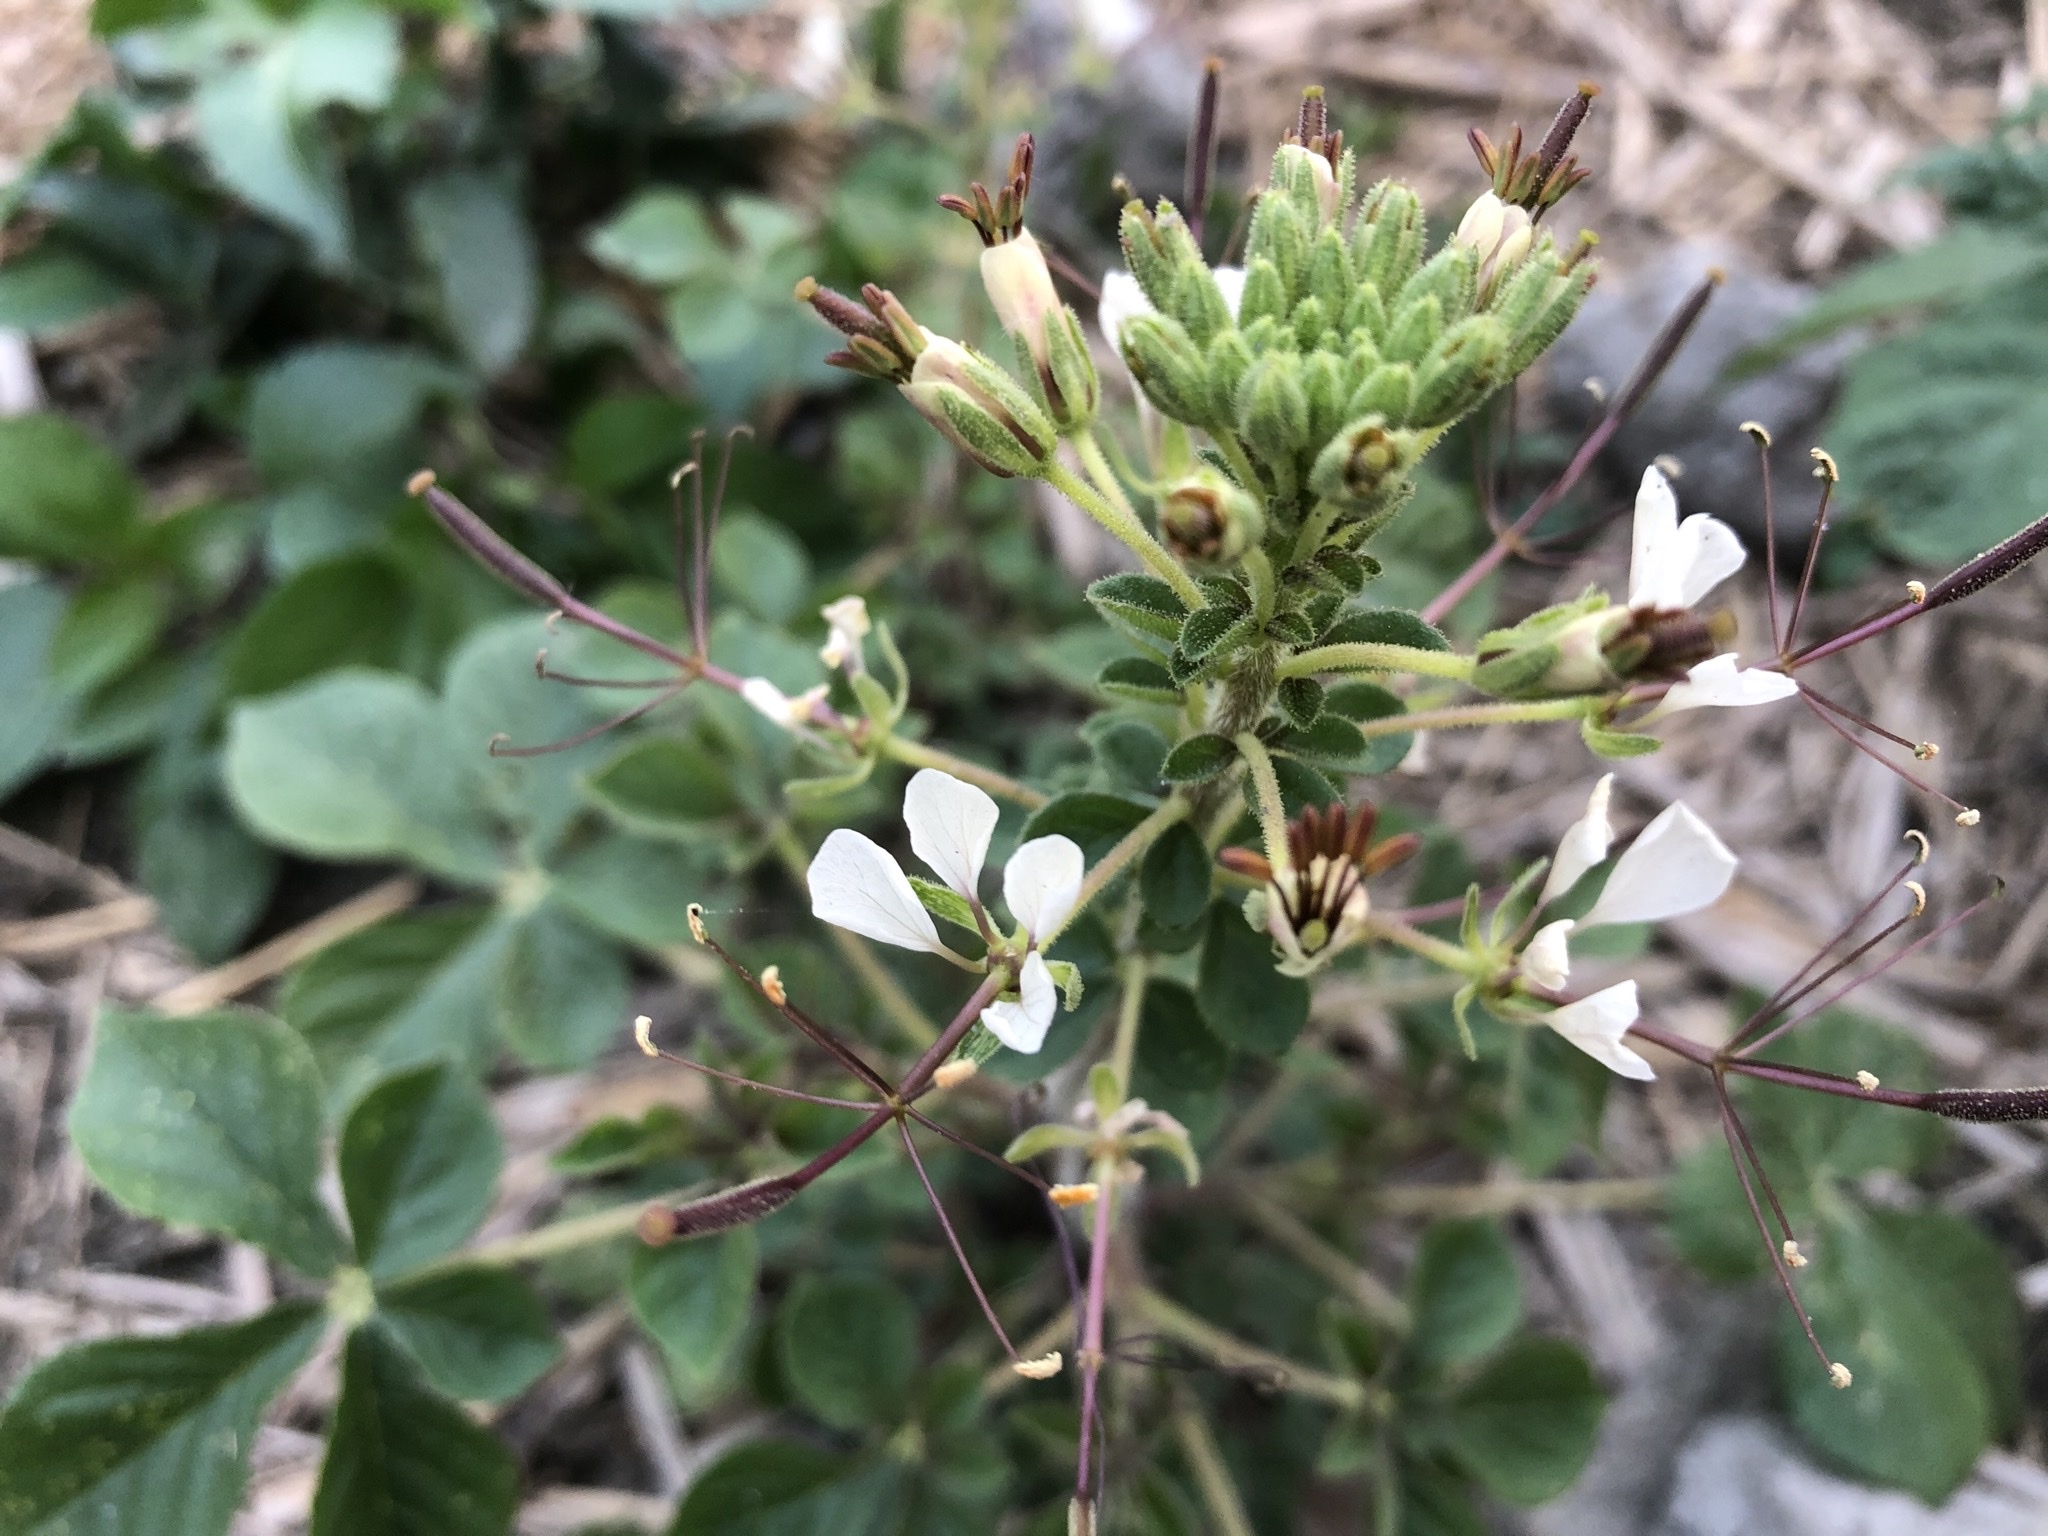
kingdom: Plantae
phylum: Tracheophyta
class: Magnoliopsida
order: Brassicales
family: Cleomaceae
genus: Gynandropsis
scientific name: Gynandropsis gynandra
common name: Spiderwisp
